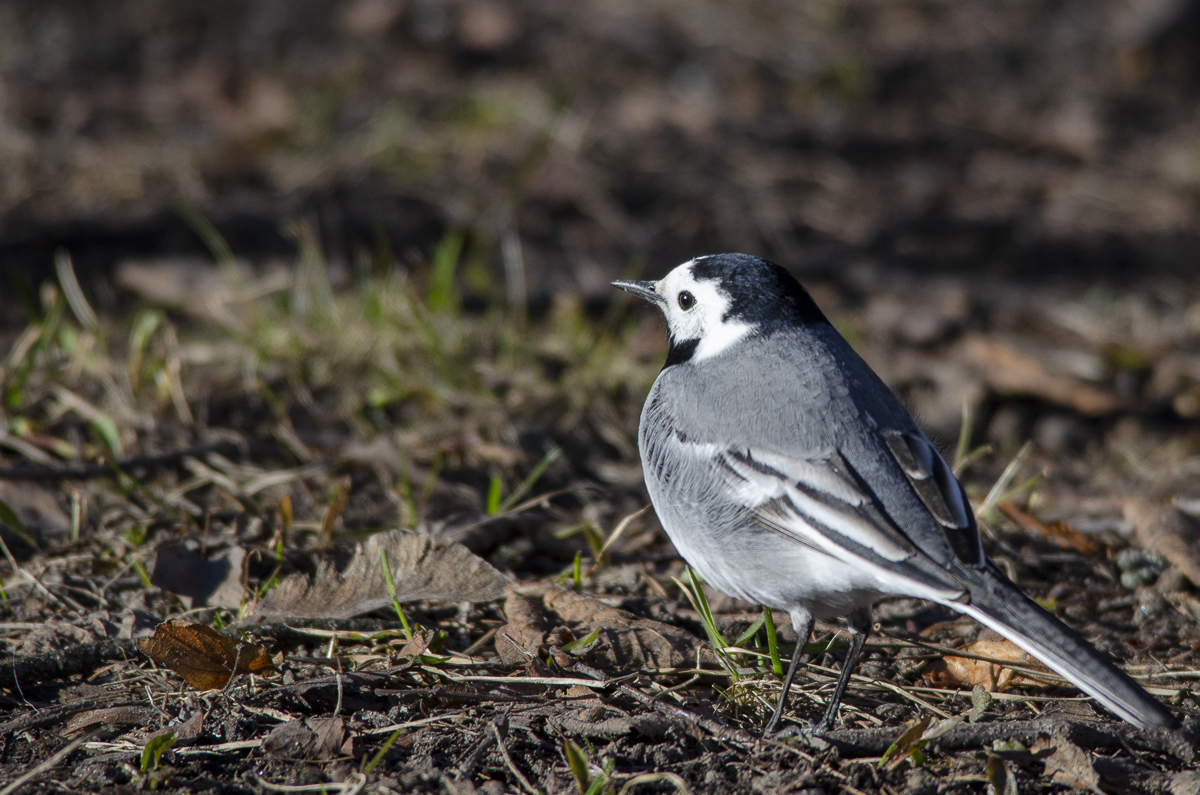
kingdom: Animalia
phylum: Chordata
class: Aves
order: Passeriformes
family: Motacillidae
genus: Motacilla
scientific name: Motacilla alba
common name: White wagtail
